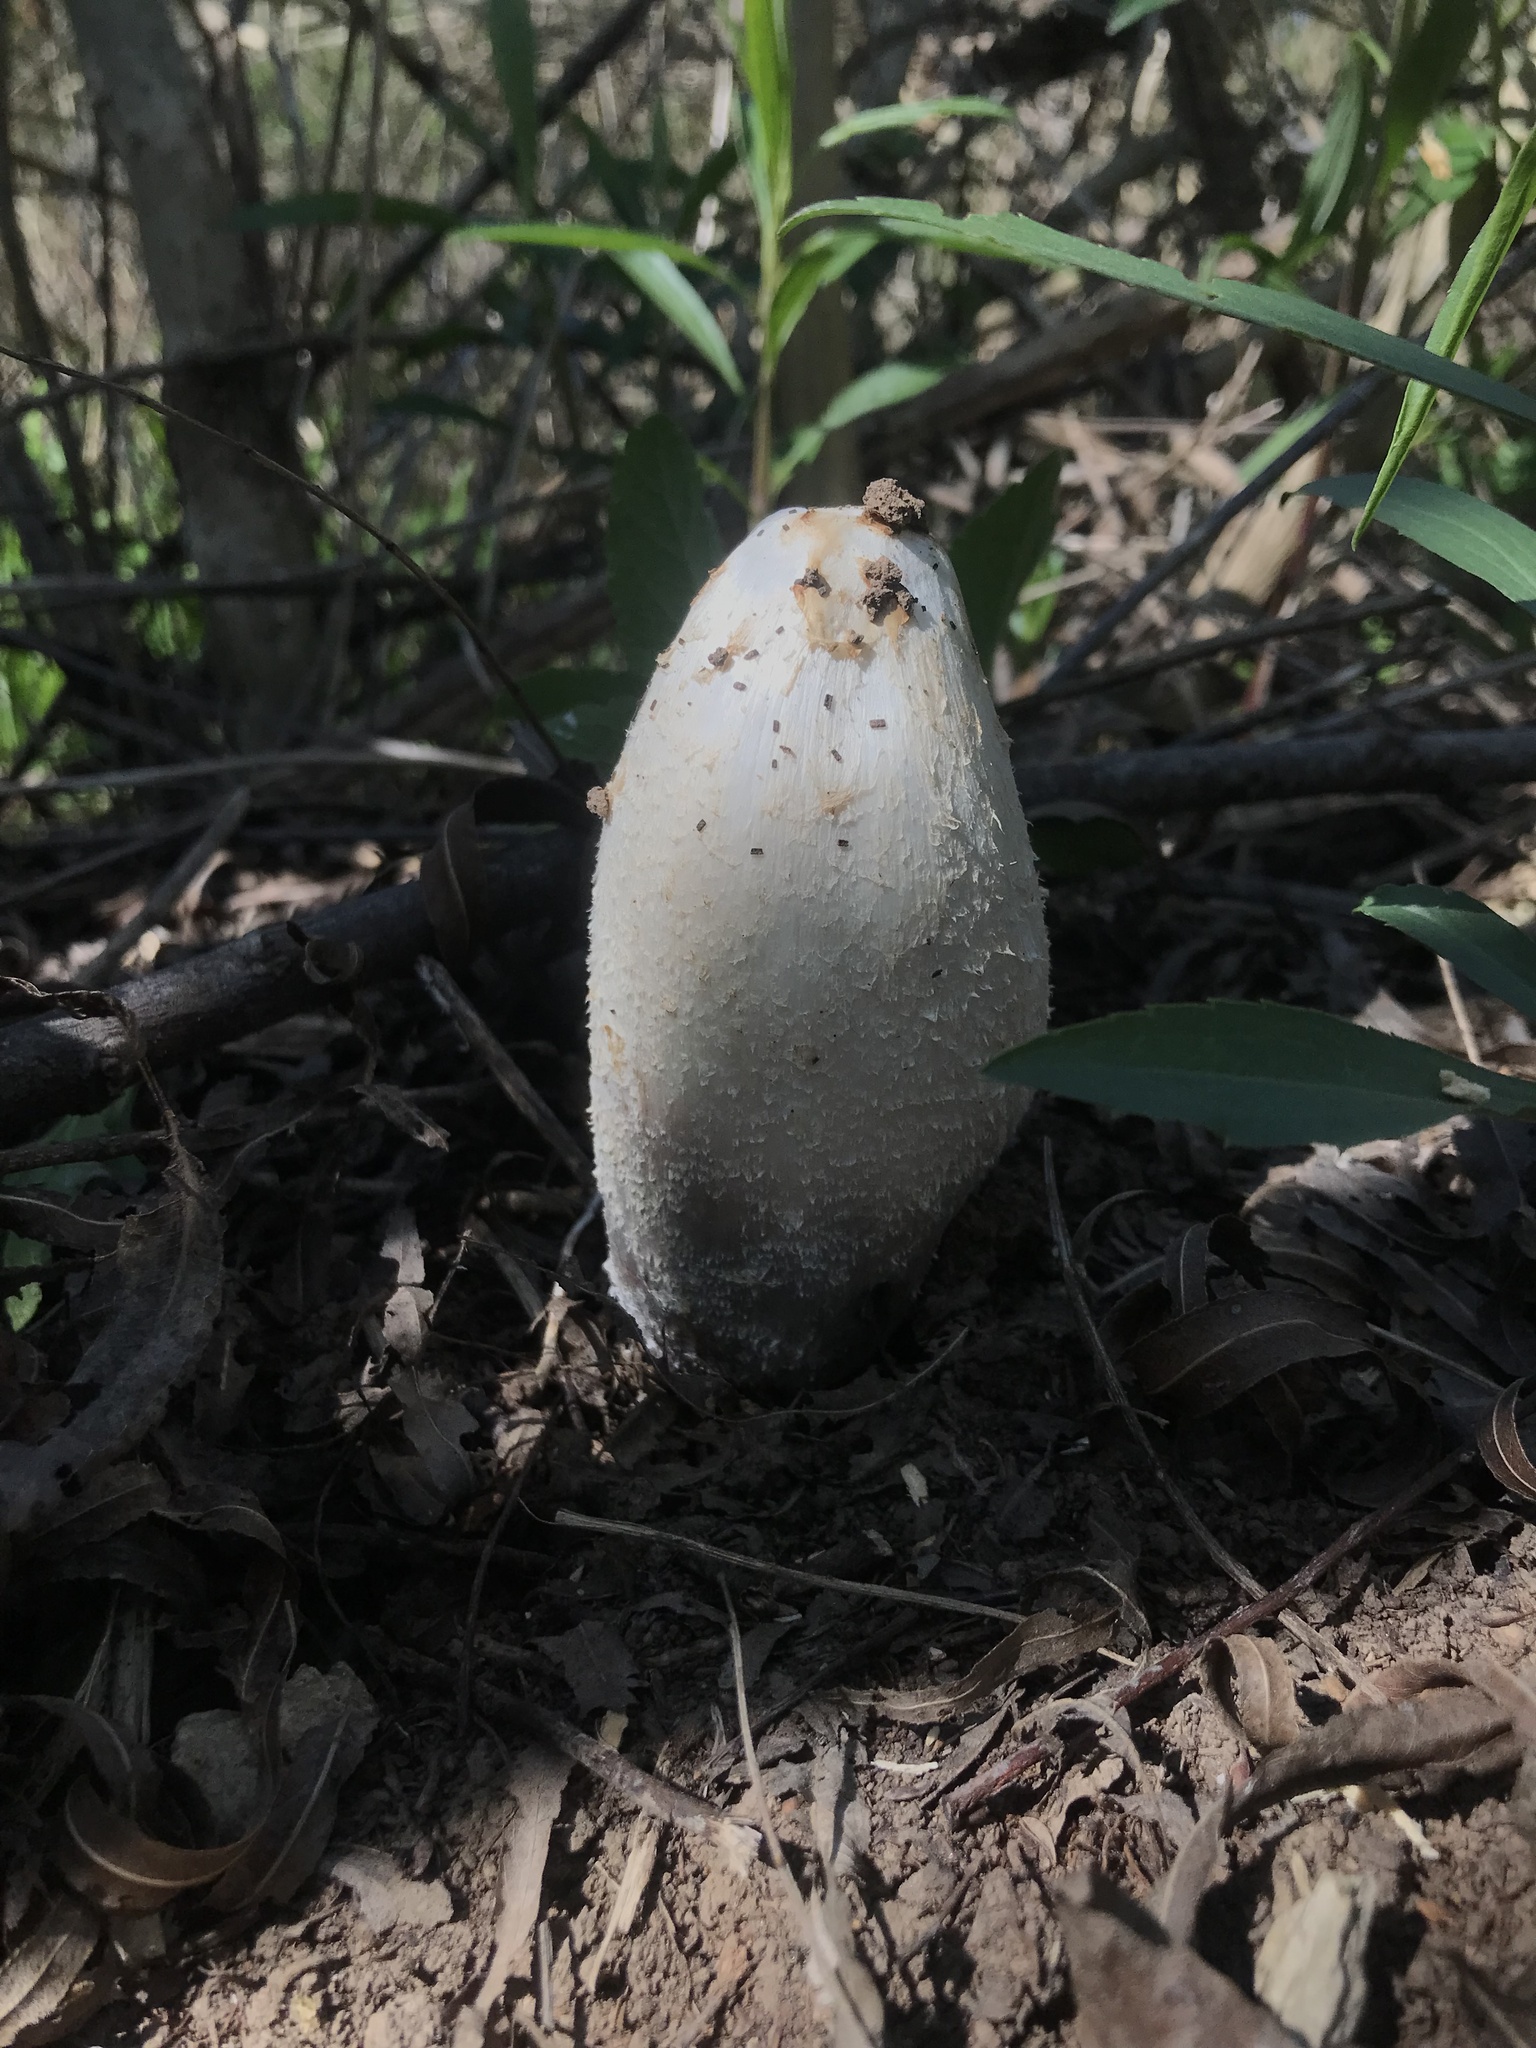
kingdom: Fungi
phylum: Basidiomycota
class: Agaricomycetes
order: Agaricales
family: Agaricaceae
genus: Coprinus
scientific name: Coprinus comatus
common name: Lawyer's wig
